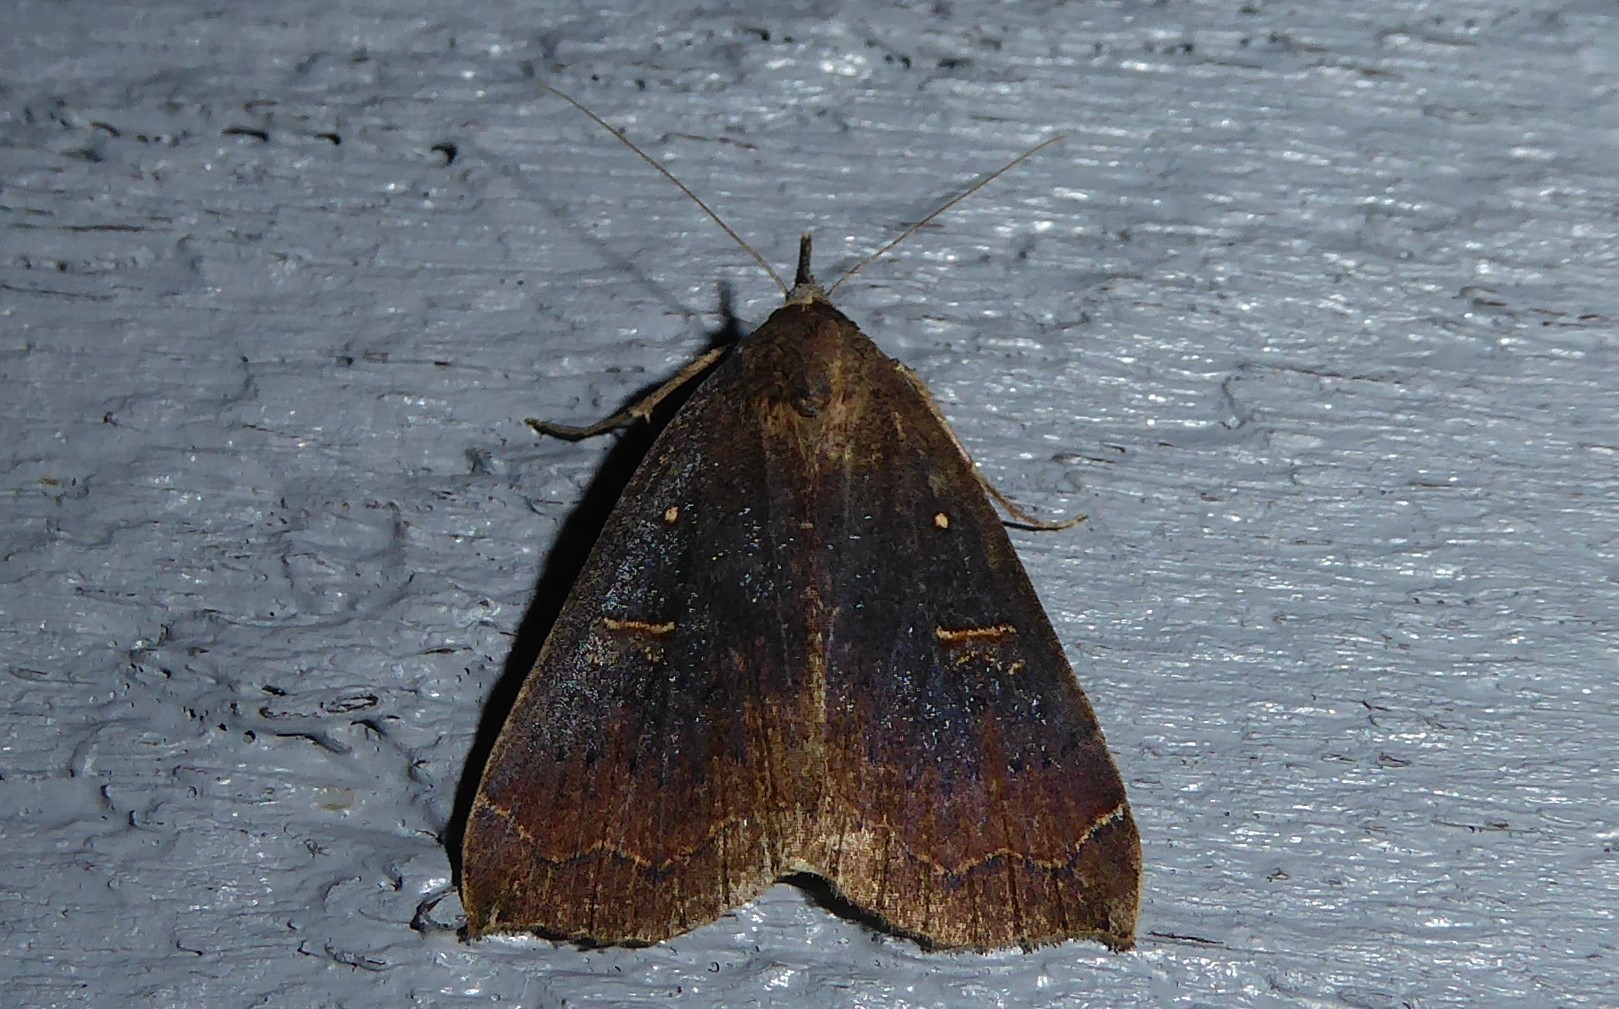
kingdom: Animalia
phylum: Arthropoda
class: Insecta
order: Lepidoptera
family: Erebidae
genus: Rhapsa
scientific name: Rhapsa scotosialis
